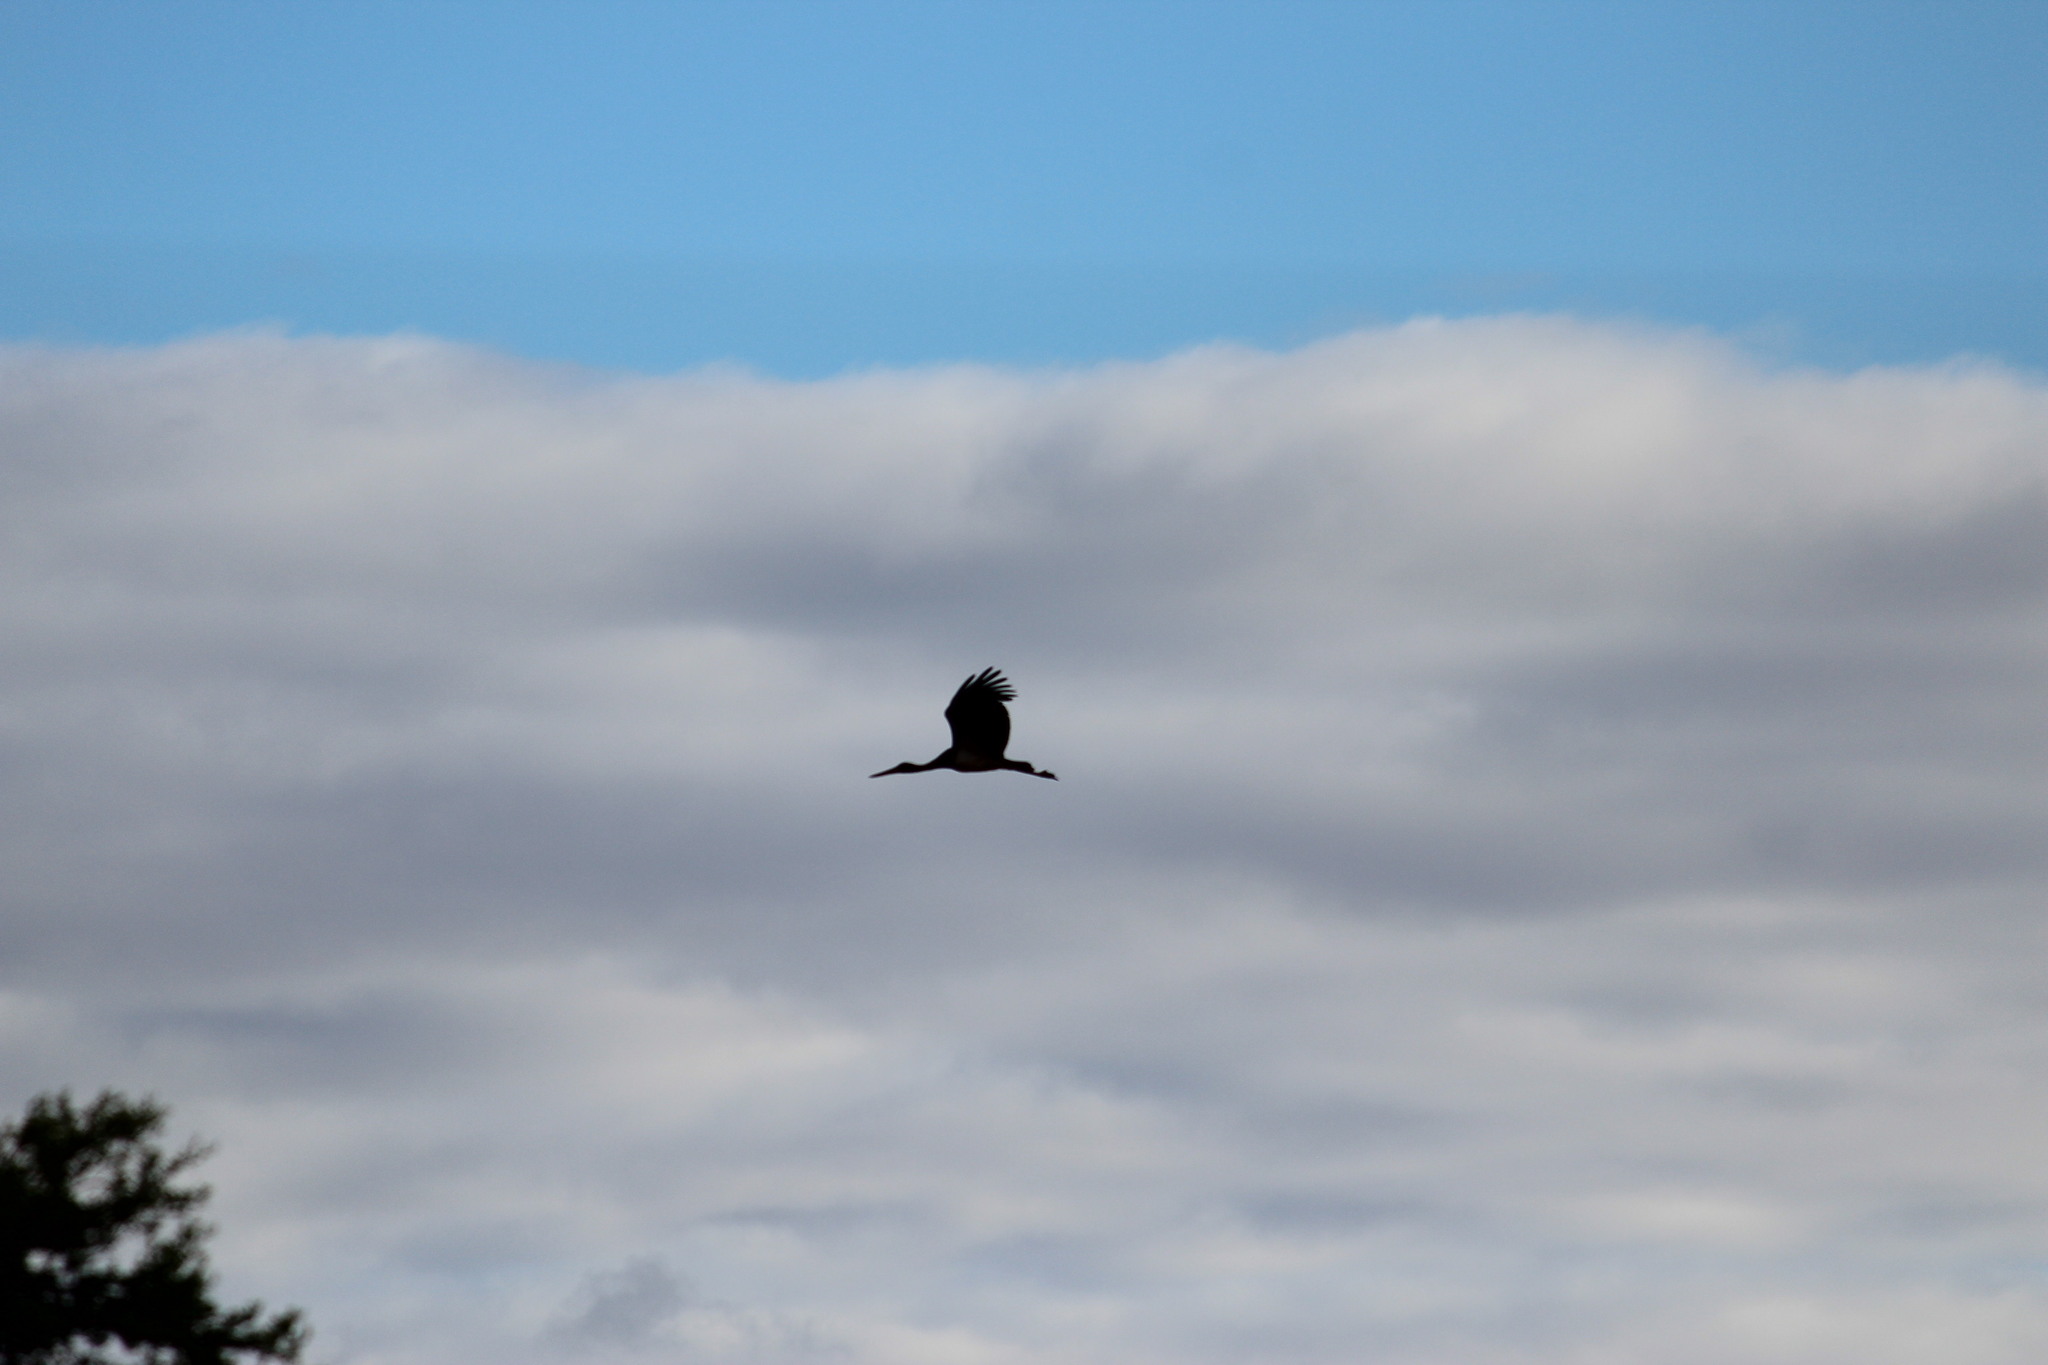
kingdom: Animalia
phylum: Chordata
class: Aves
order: Ciconiiformes
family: Ciconiidae
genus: Ciconia
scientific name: Ciconia nigra
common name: Black stork
